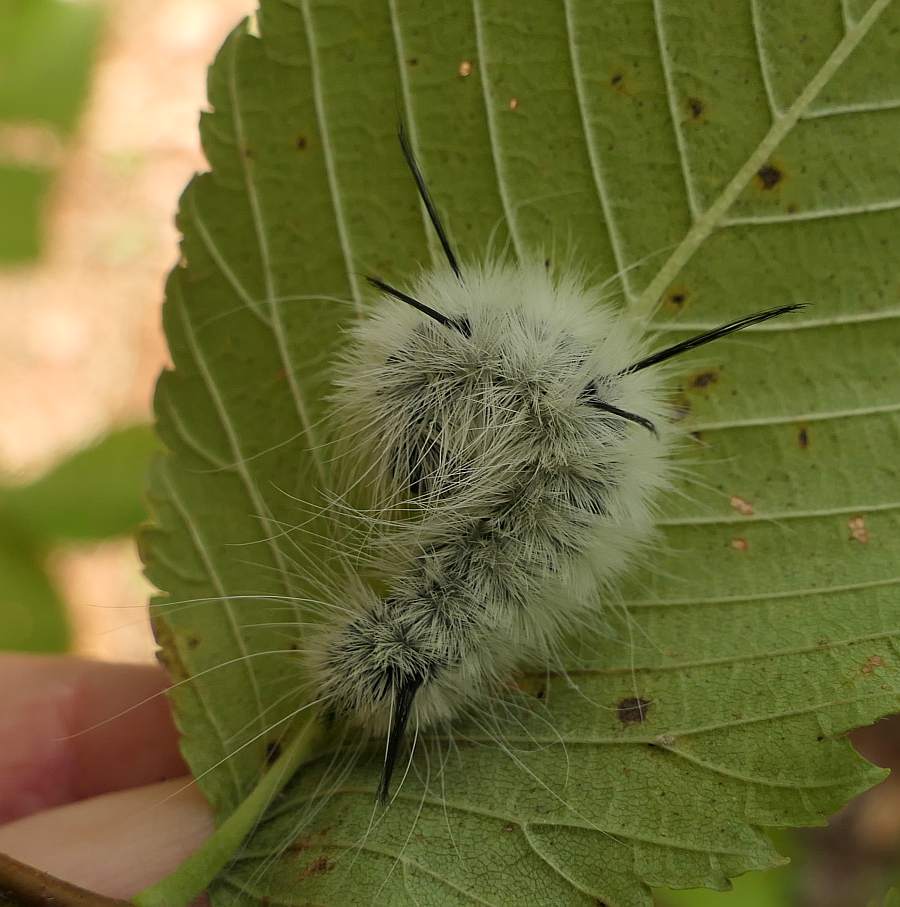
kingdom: Animalia
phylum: Arthropoda
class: Insecta
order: Lepidoptera
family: Noctuidae
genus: Acronicta
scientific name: Acronicta americana
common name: American dagger
